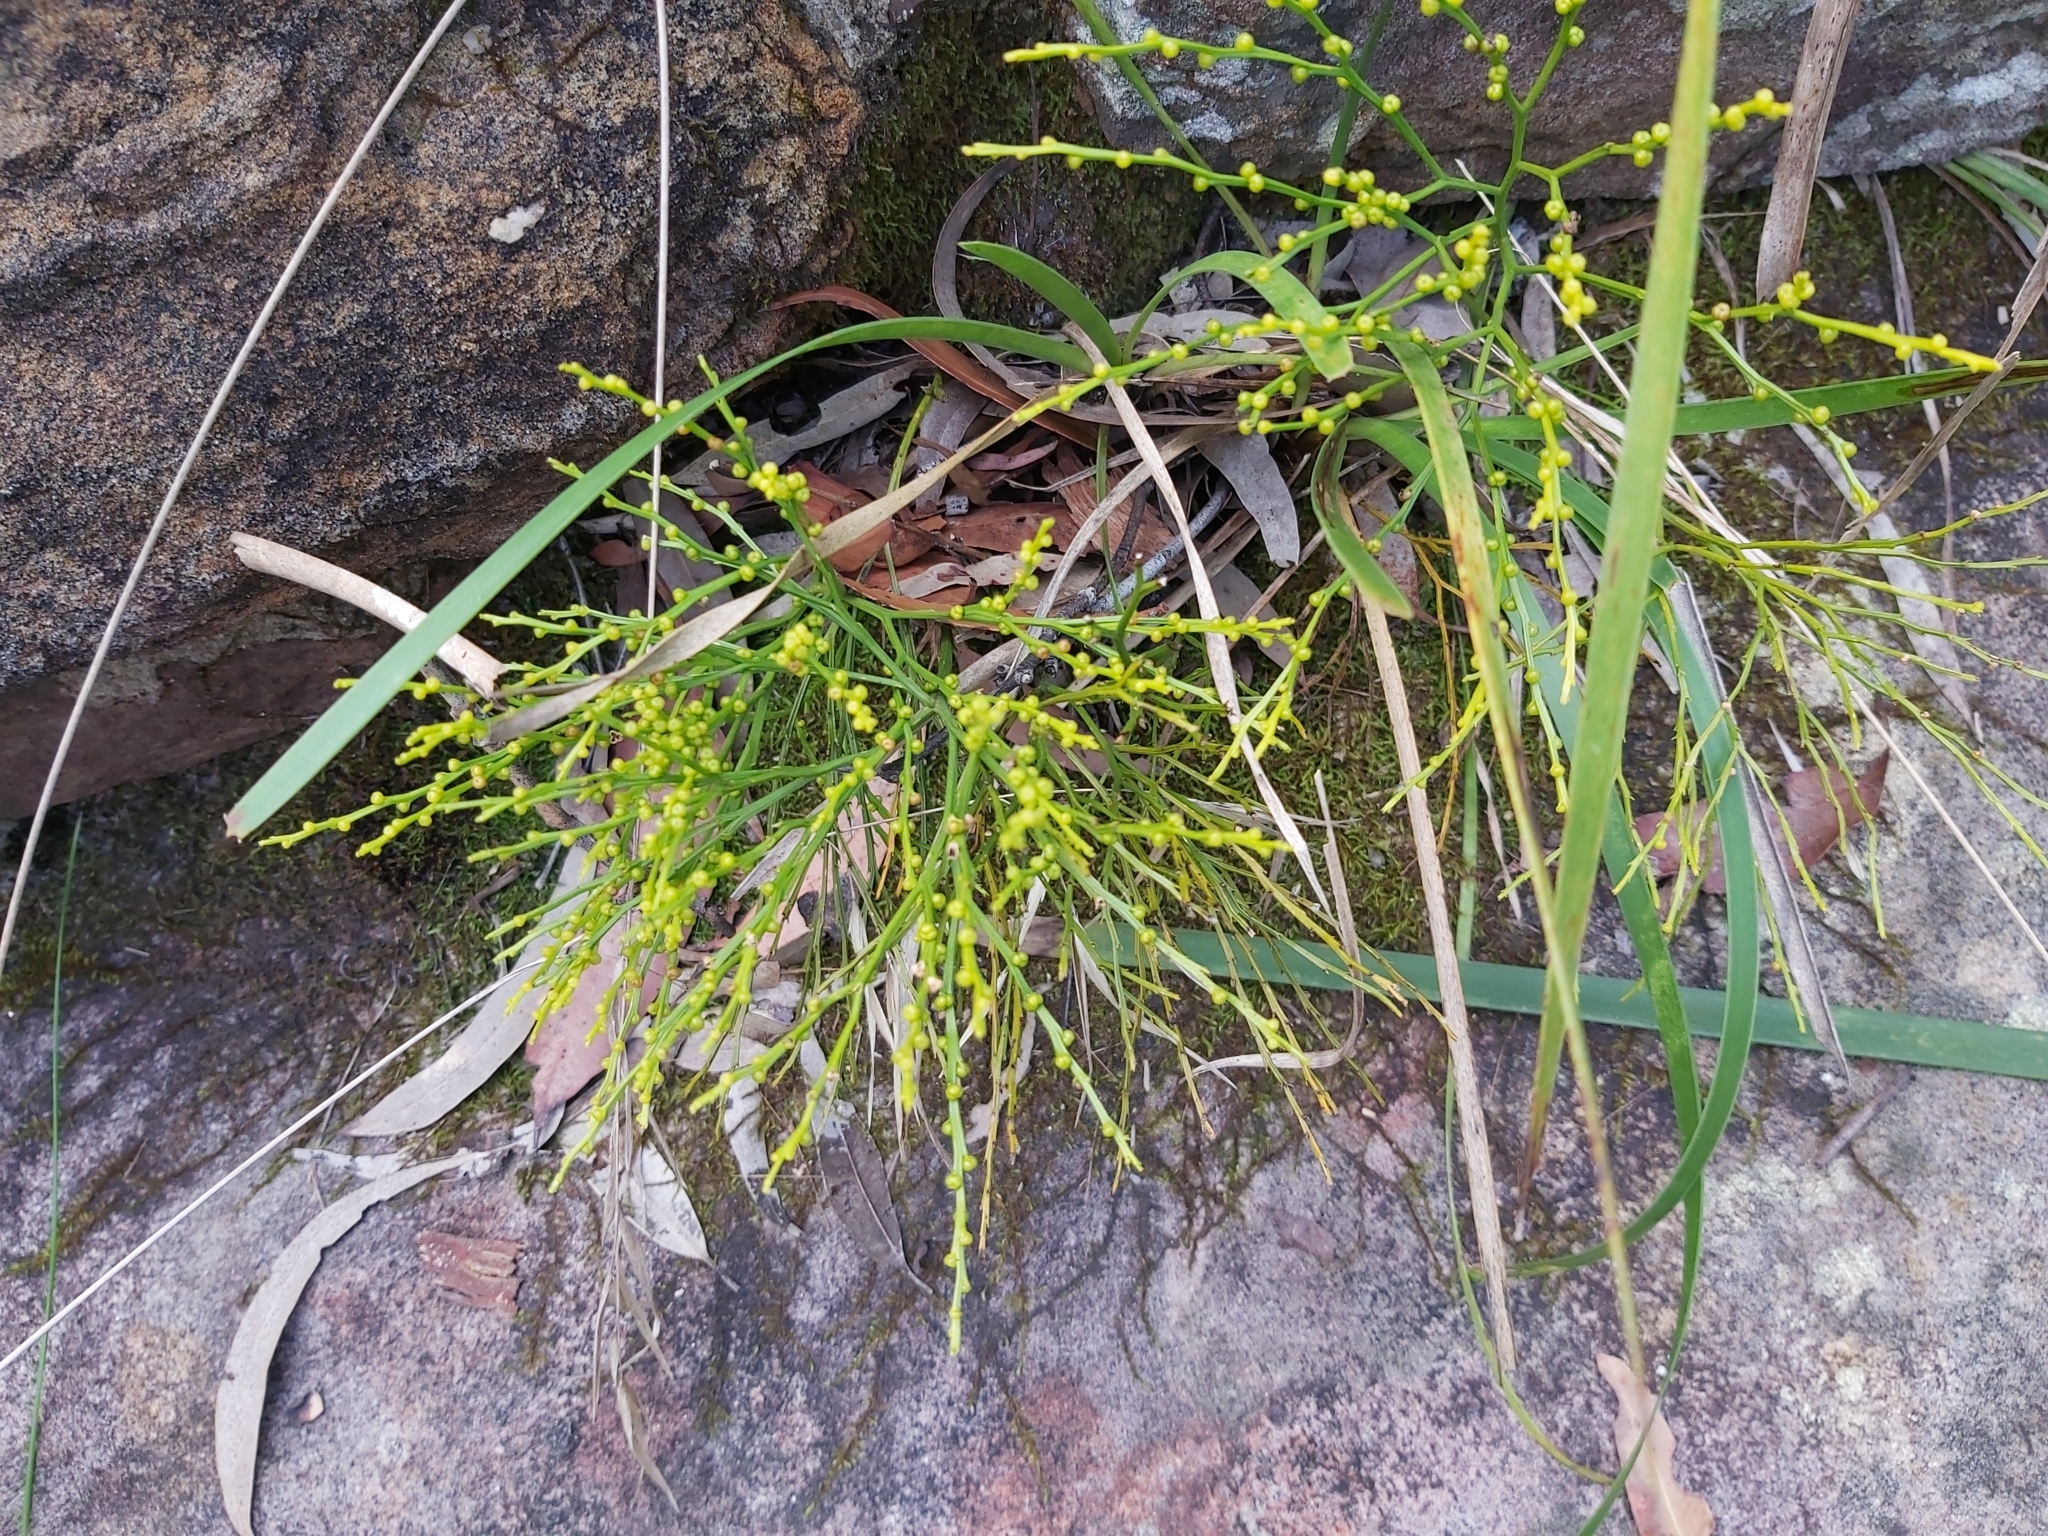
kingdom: Plantae
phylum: Tracheophyta
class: Polypodiopsida
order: Psilotales
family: Psilotaceae
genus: Psilotum
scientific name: Psilotum nudum
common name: Skeleton fork fern
